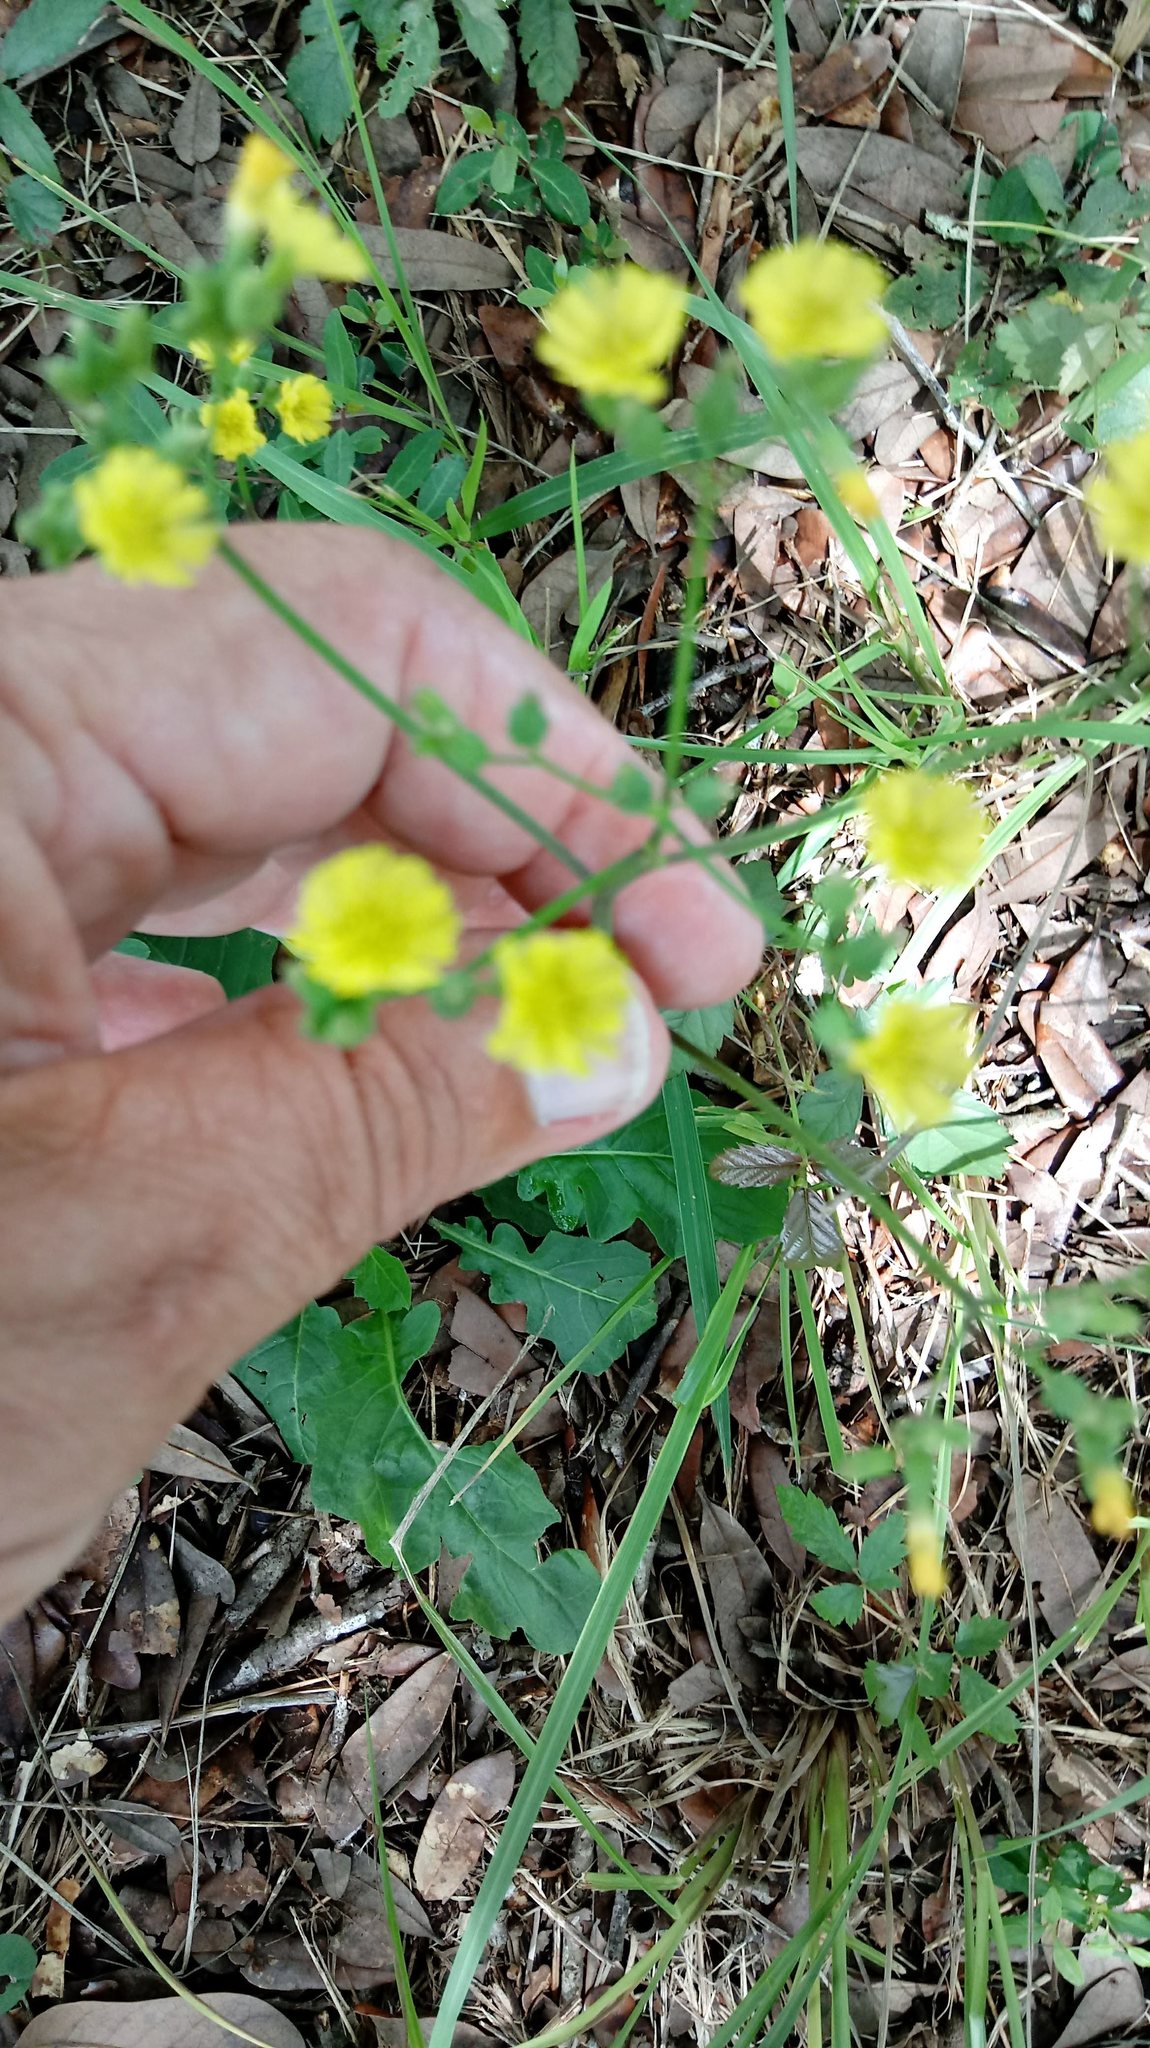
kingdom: Plantae
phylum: Tracheophyta
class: Magnoliopsida
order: Asterales
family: Asteraceae
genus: Youngia
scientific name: Youngia japonica
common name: Oriental false hawksbeard
